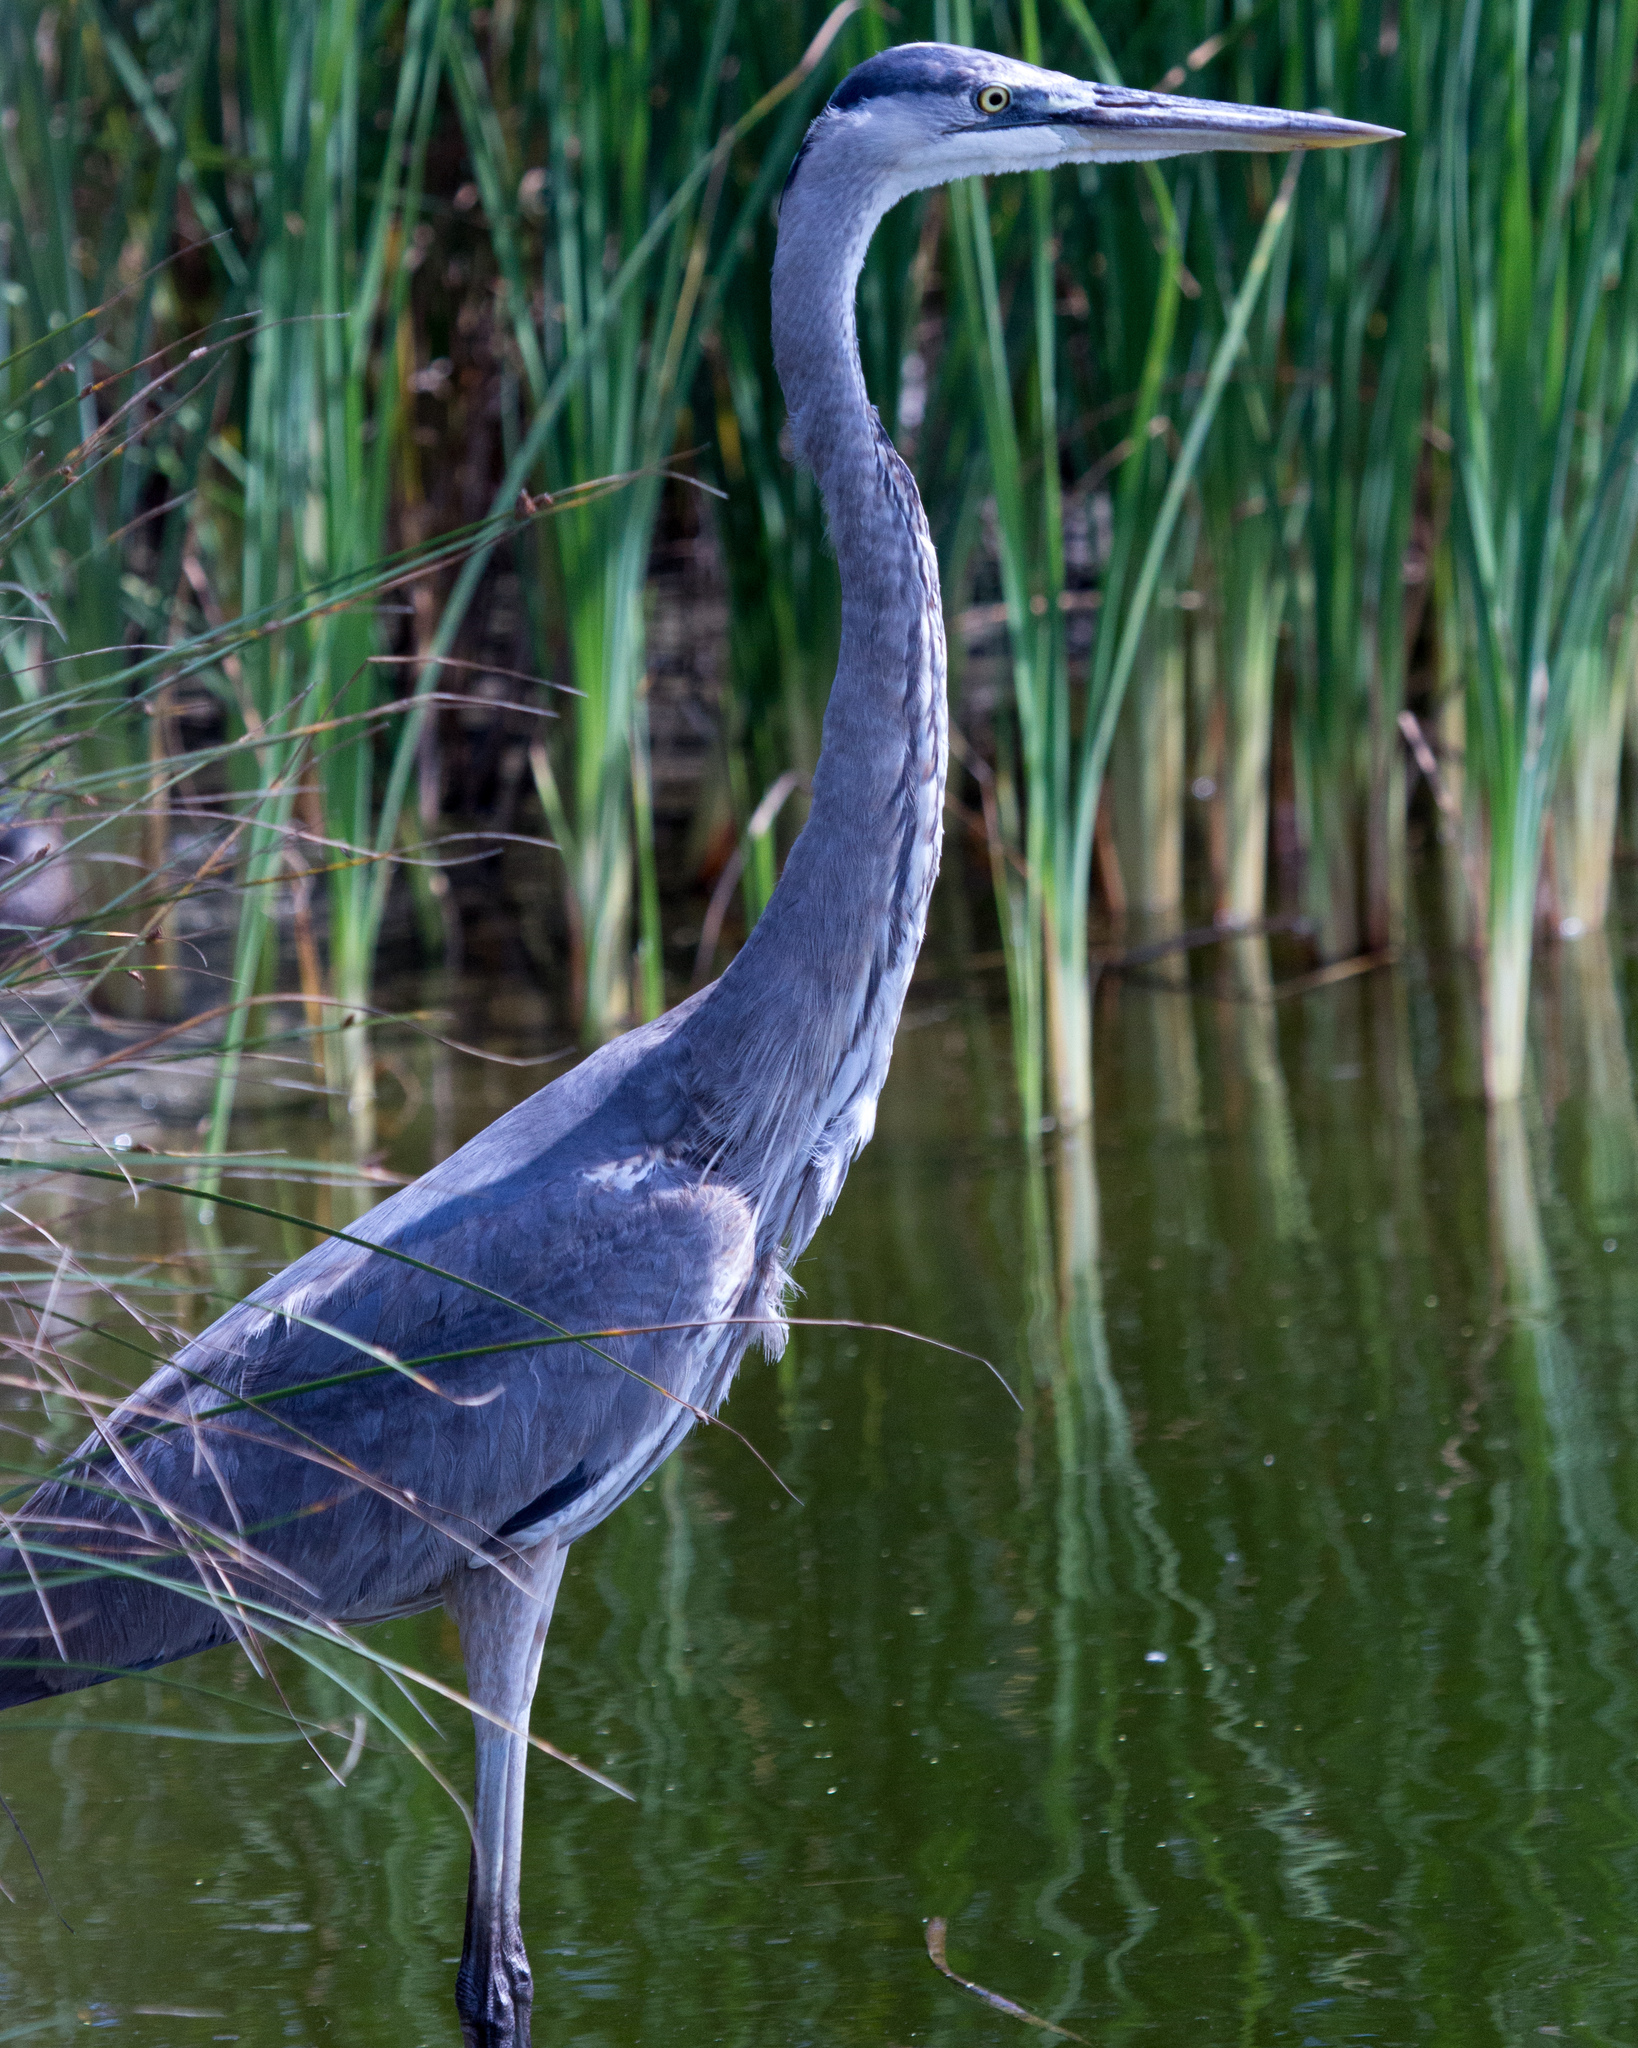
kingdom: Animalia
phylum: Chordata
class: Aves
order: Pelecaniformes
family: Ardeidae
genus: Ardea
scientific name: Ardea herodias
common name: Great blue heron
